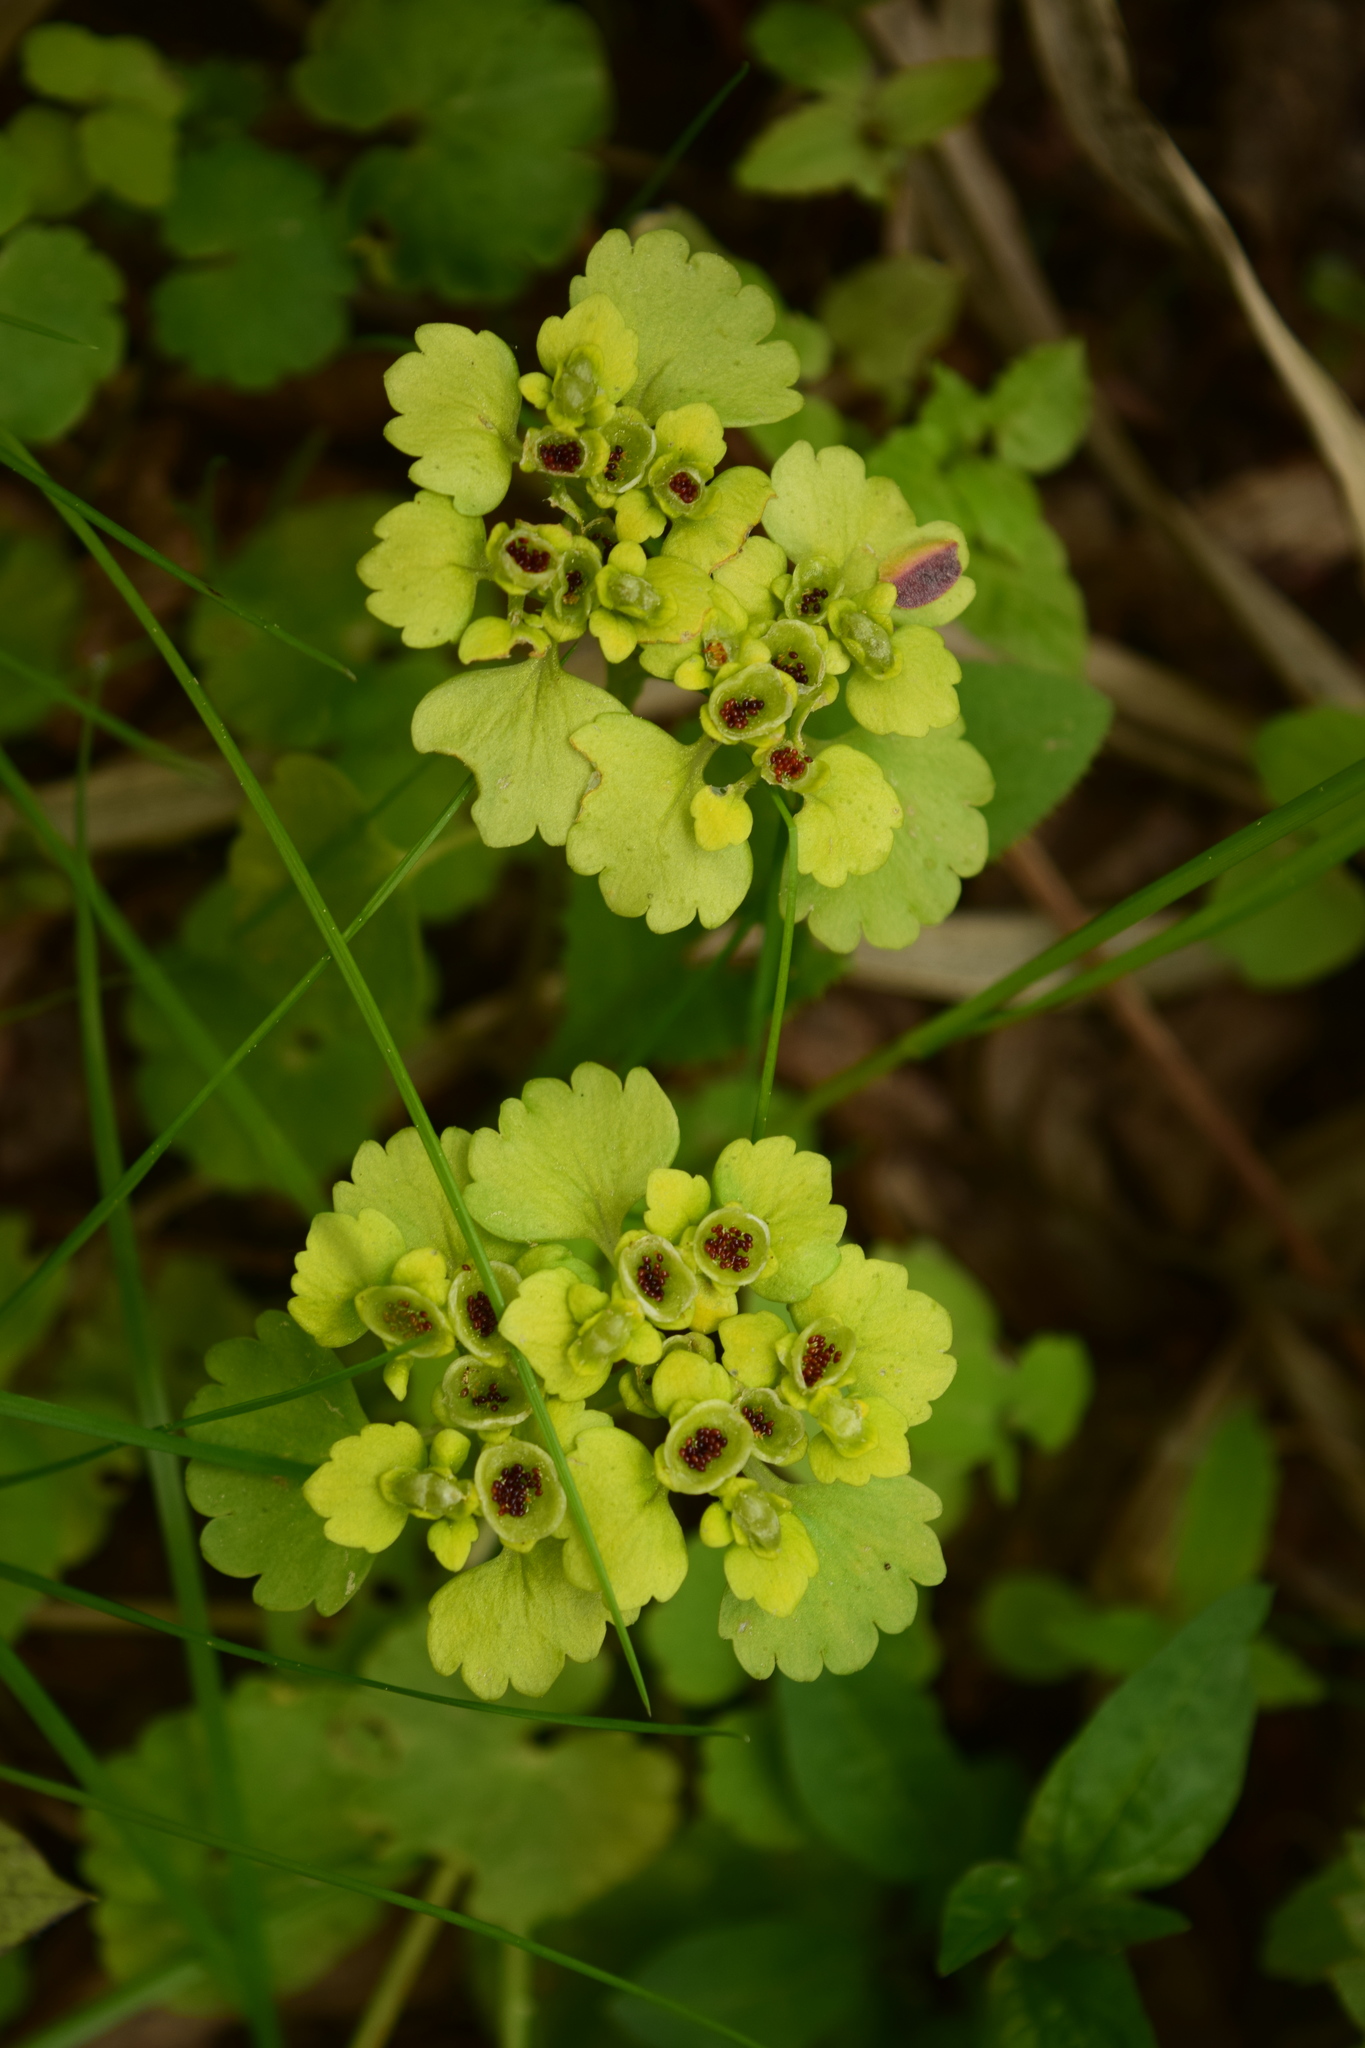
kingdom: Plantae
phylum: Tracheophyta
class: Magnoliopsida
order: Saxifragales
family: Saxifragaceae
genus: Chrysosplenium
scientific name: Chrysosplenium alternifolium
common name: Alternate-leaved golden-saxifrage
